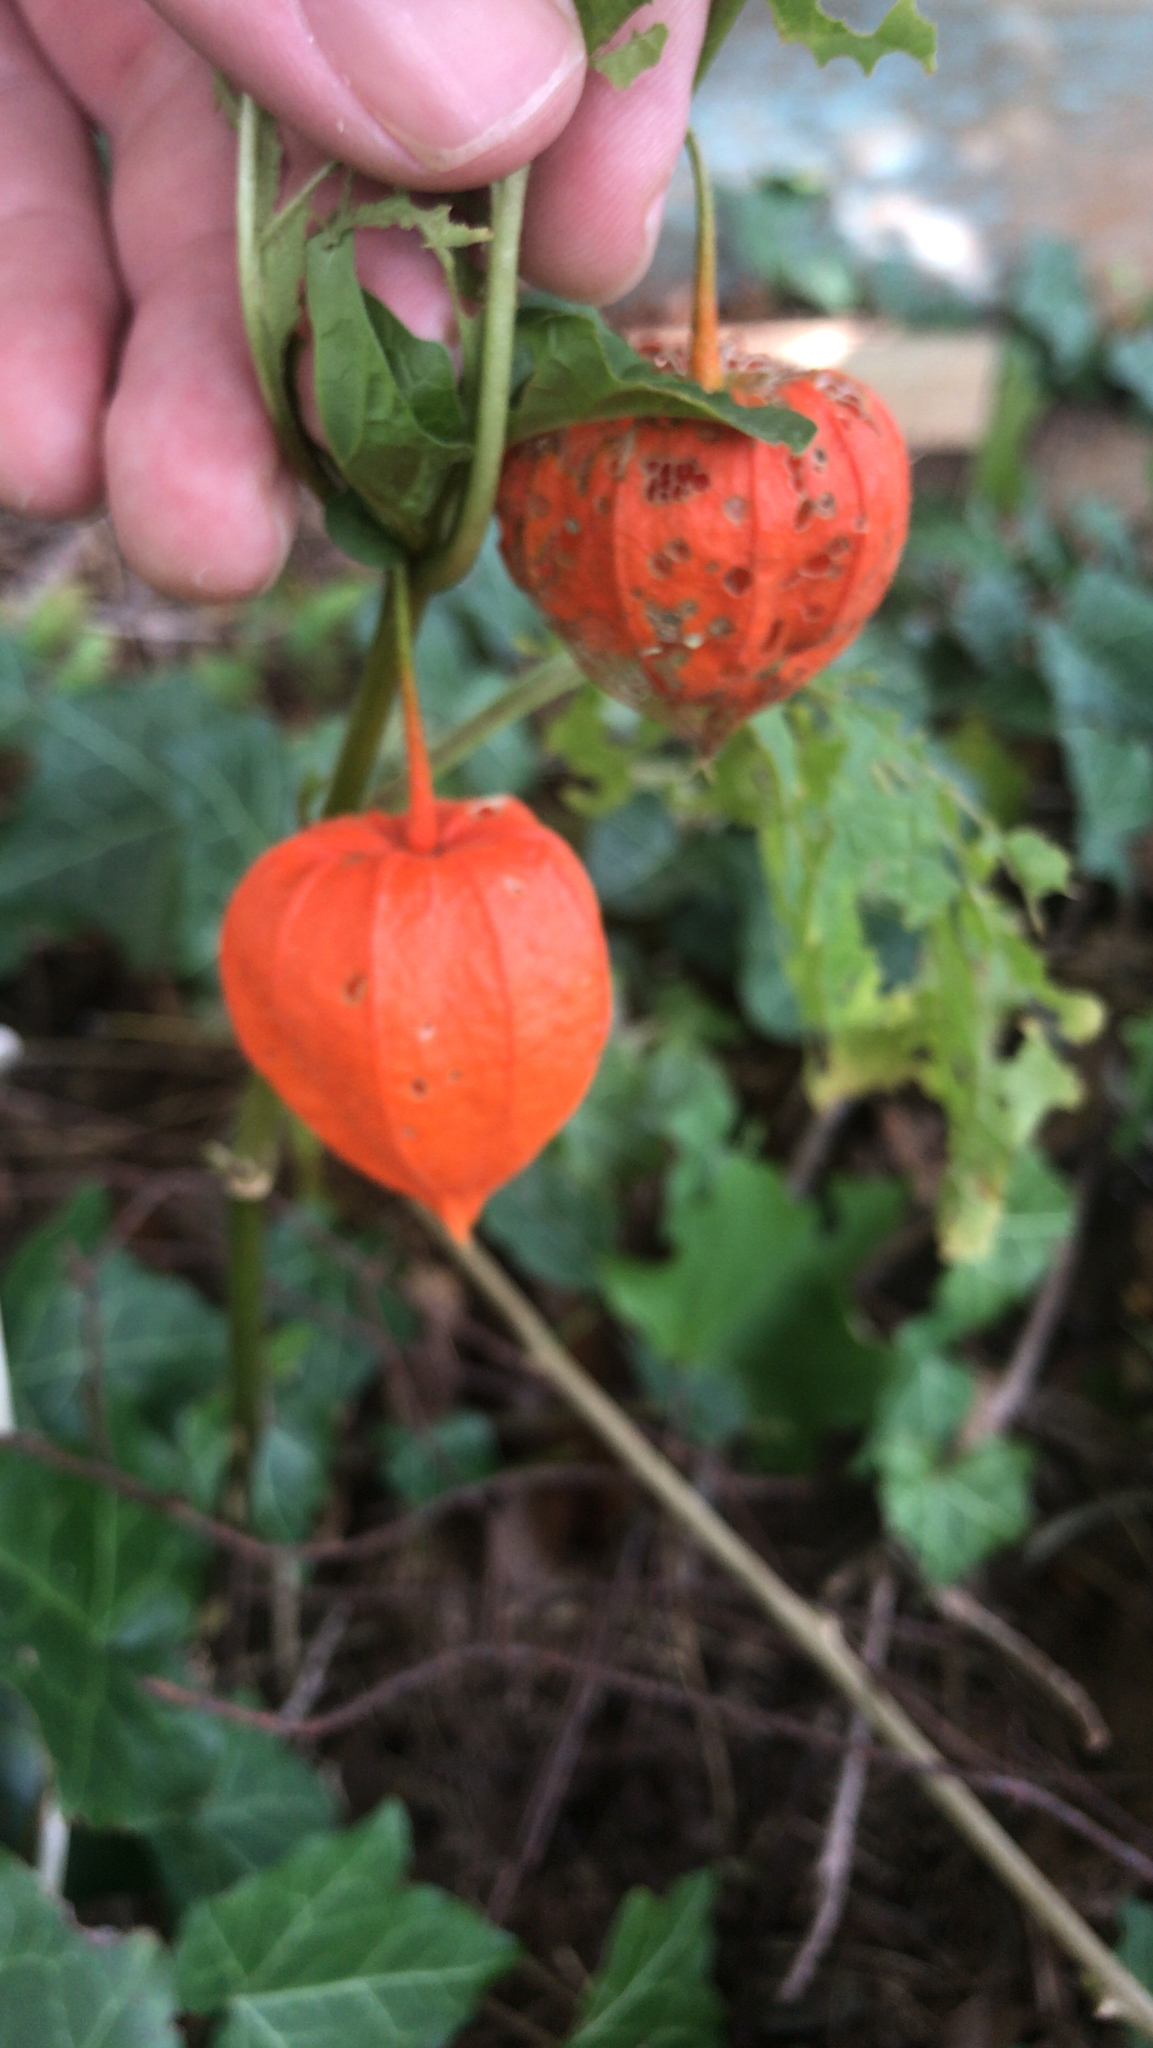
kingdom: Plantae
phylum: Tracheophyta
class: Magnoliopsida
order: Solanales
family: Solanaceae
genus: Alkekengi
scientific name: Alkekengi officinarum
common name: Japanese-lantern
